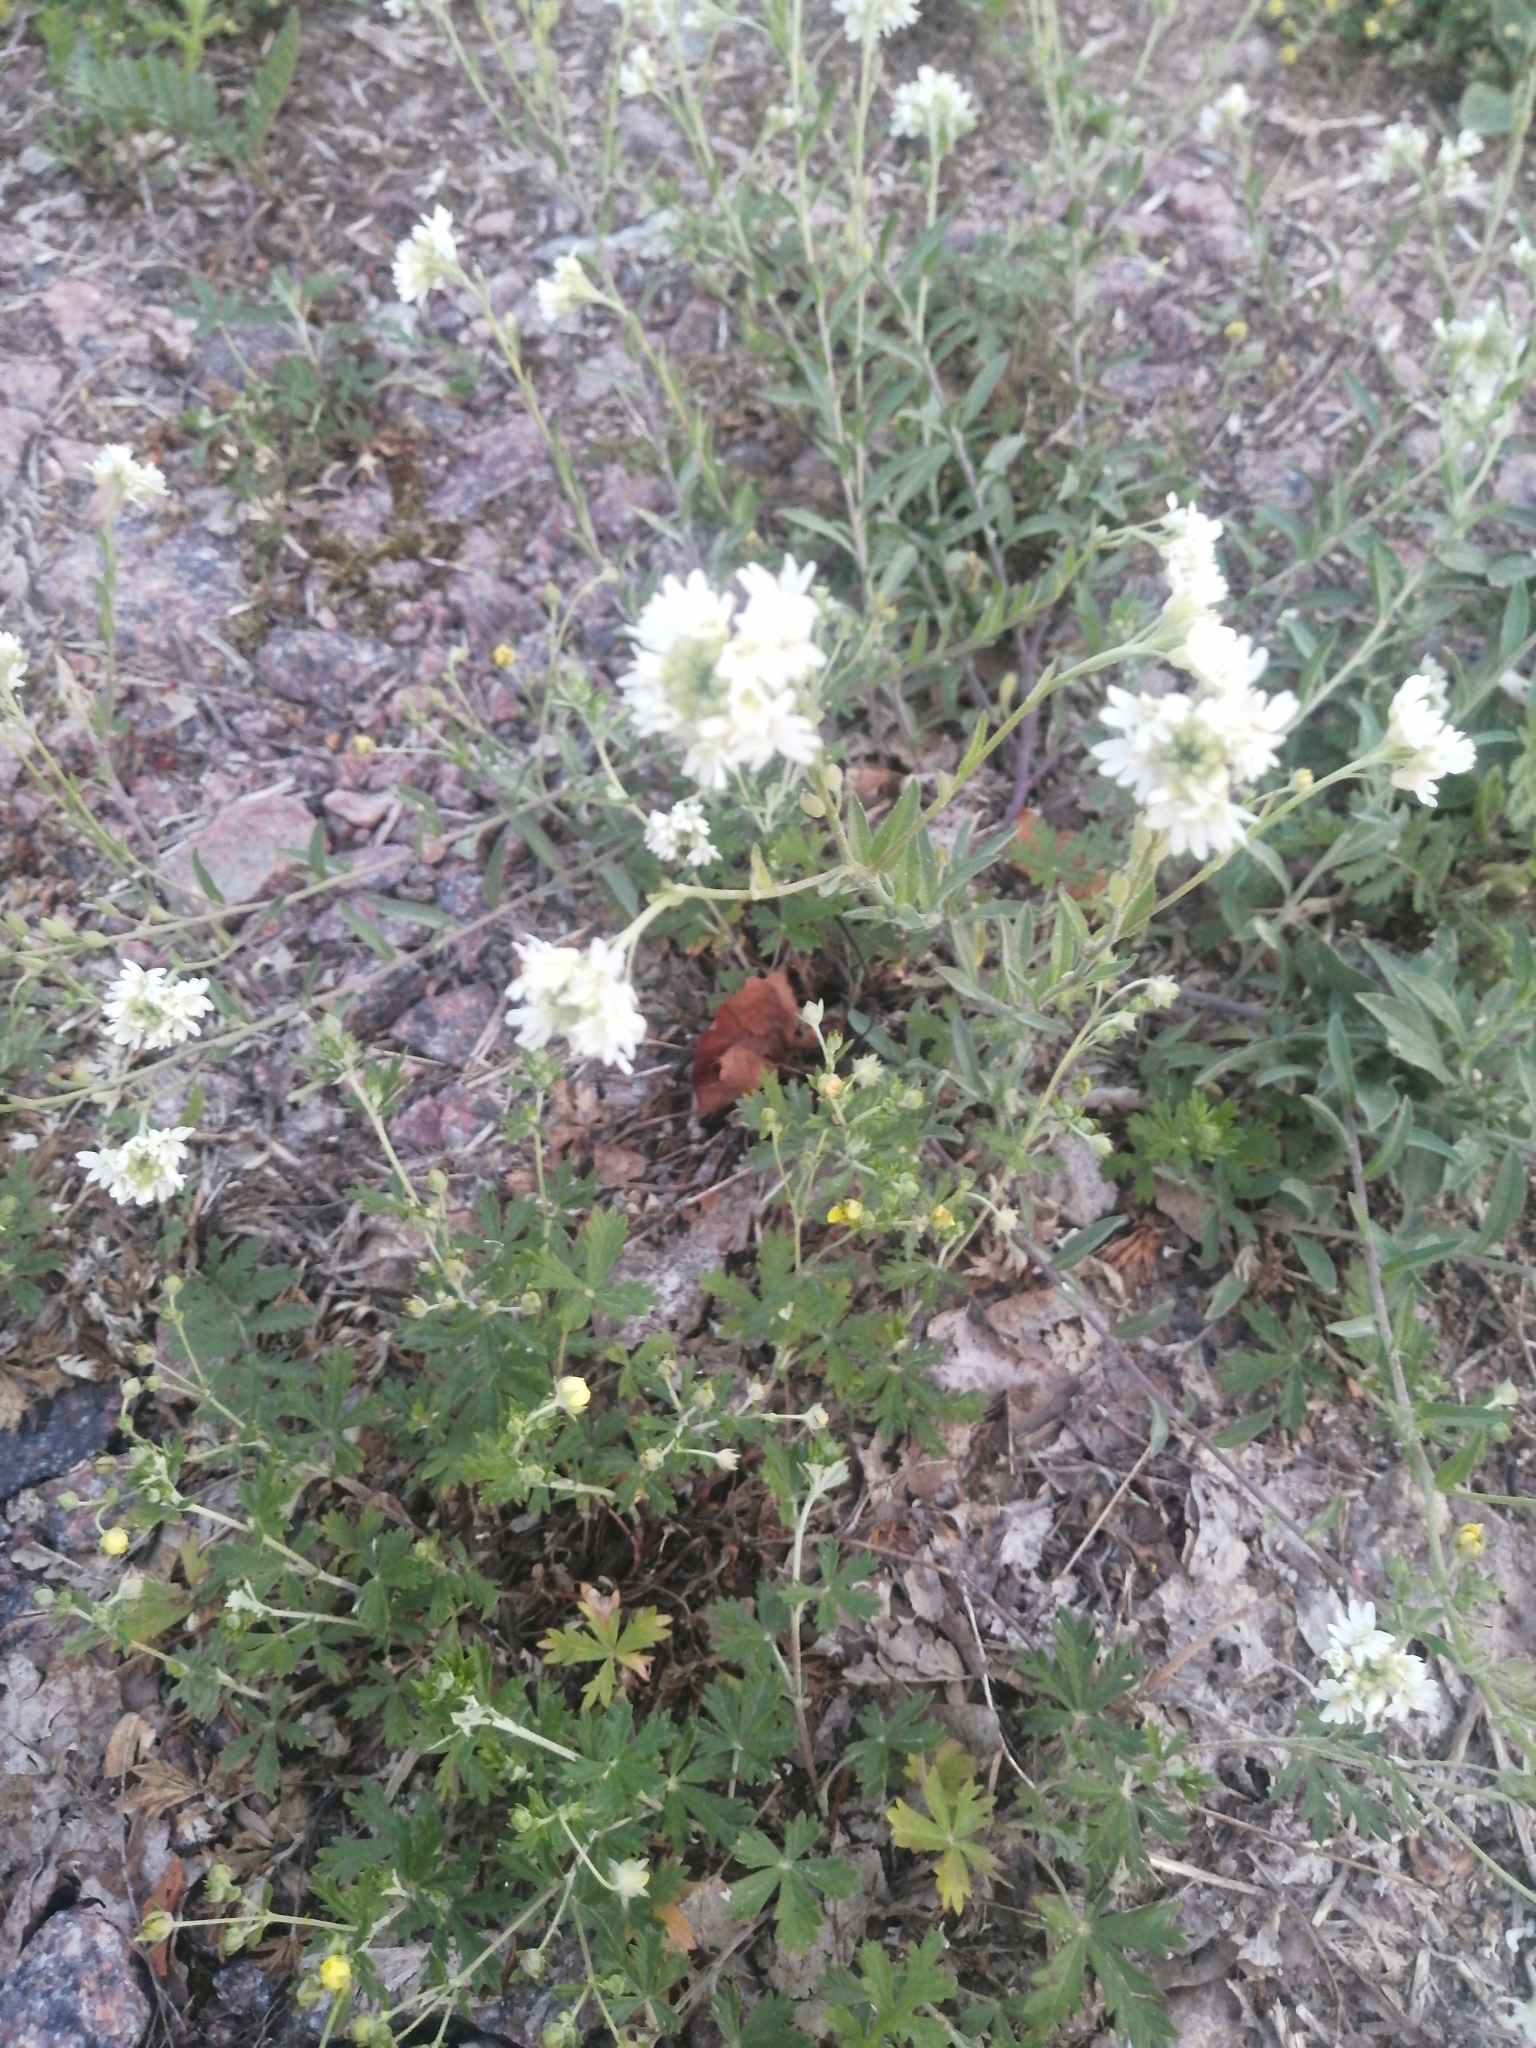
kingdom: Plantae
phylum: Tracheophyta
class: Magnoliopsida
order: Brassicales
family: Brassicaceae
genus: Berteroa
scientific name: Berteroa incana
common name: Hoary alison
